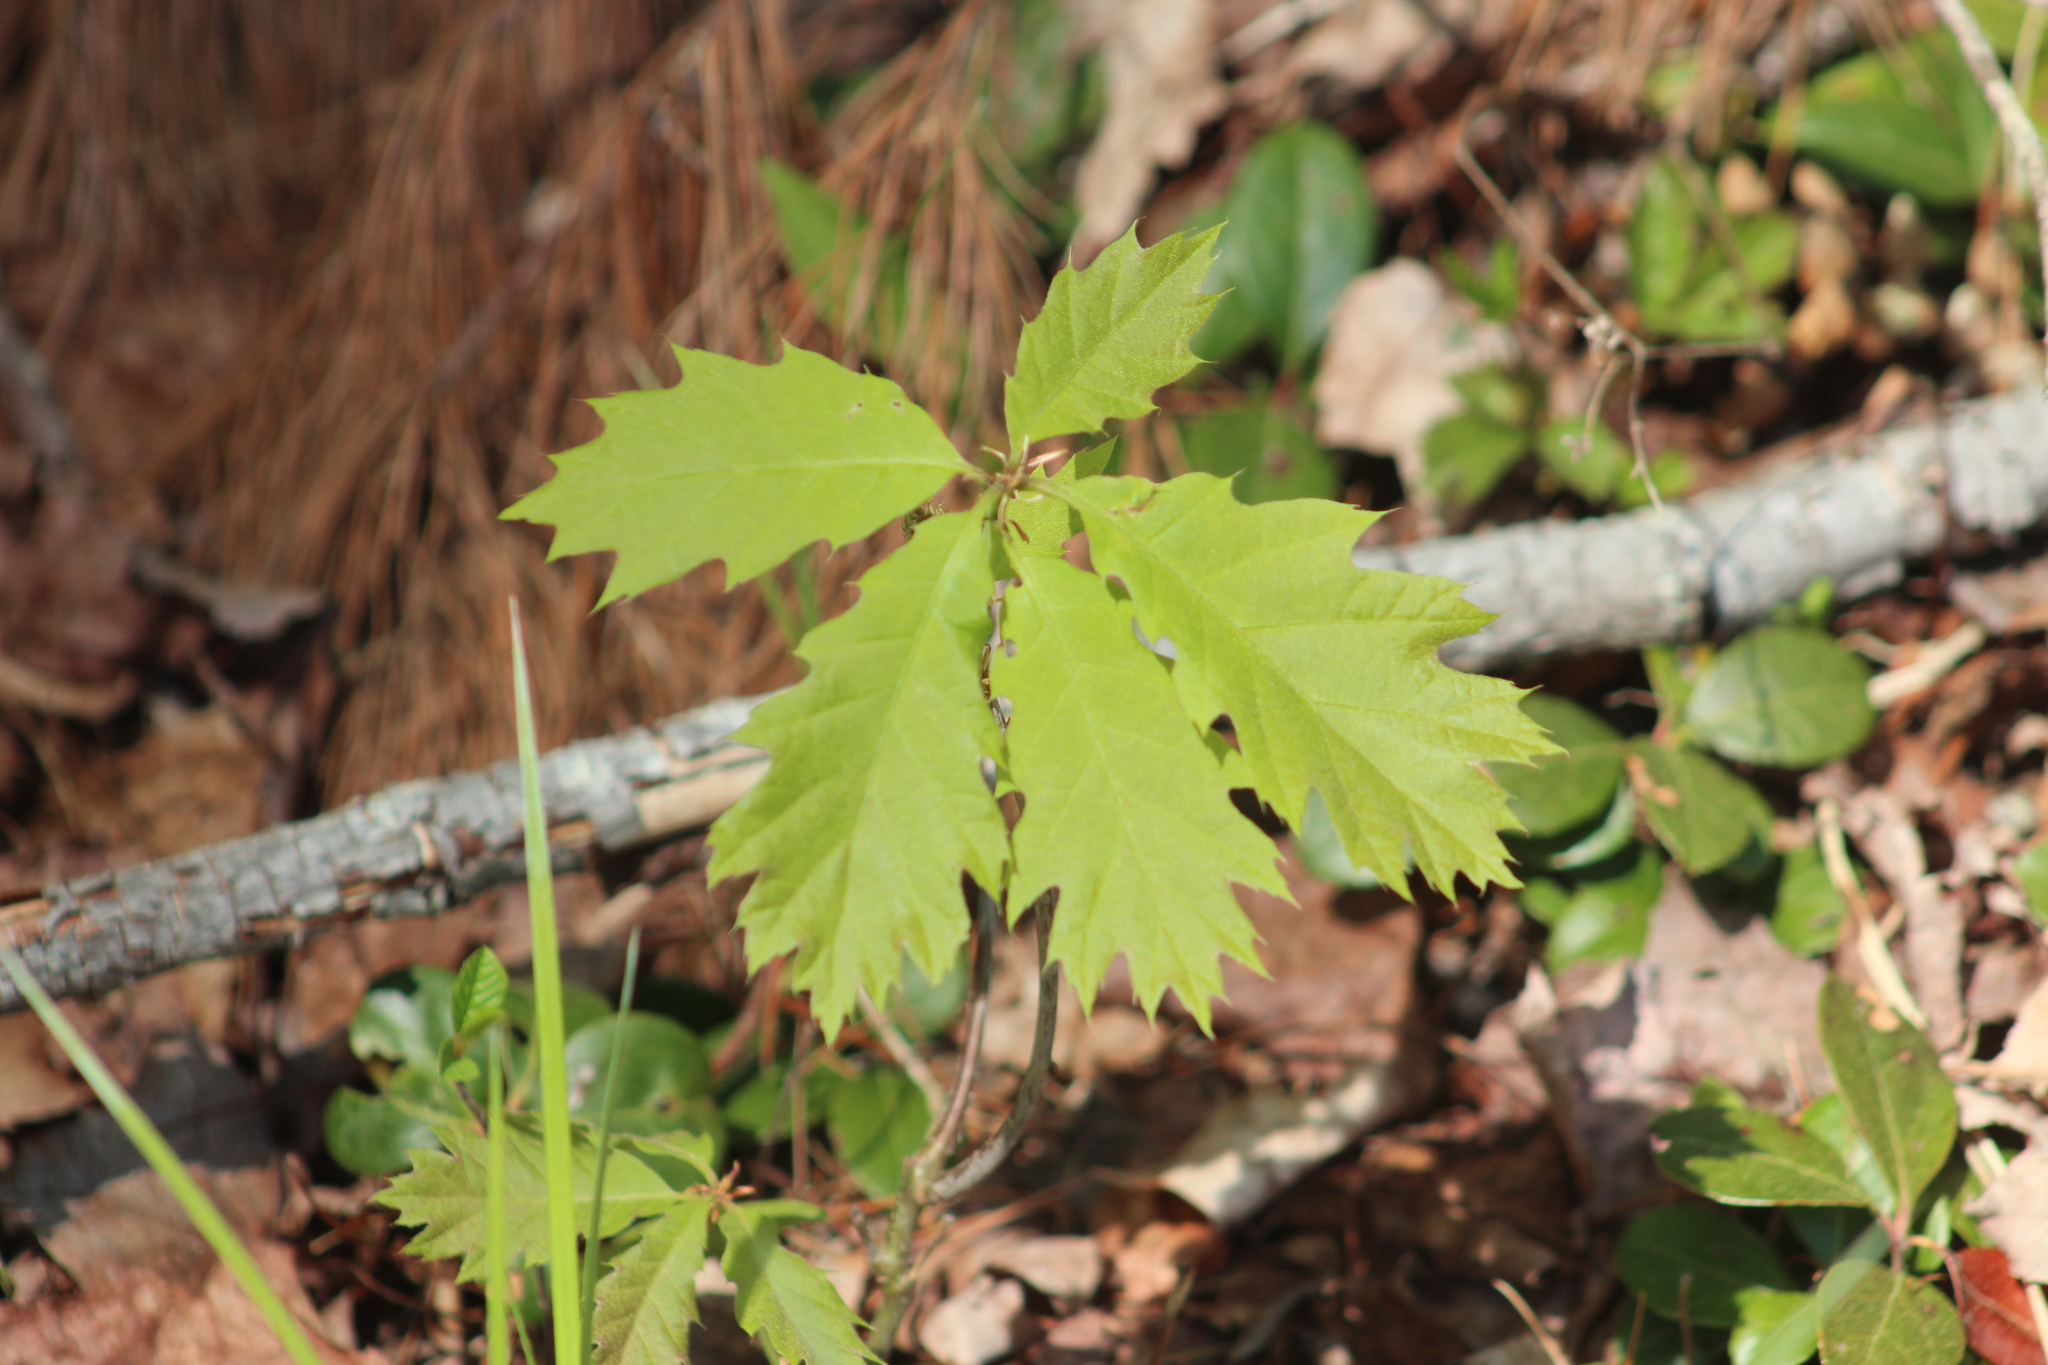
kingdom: Plantae
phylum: Tracheophyta
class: Magnoliopsida
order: Fagales
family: Fagaceae
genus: Quercus
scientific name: Quercus rubra
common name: Red oak
